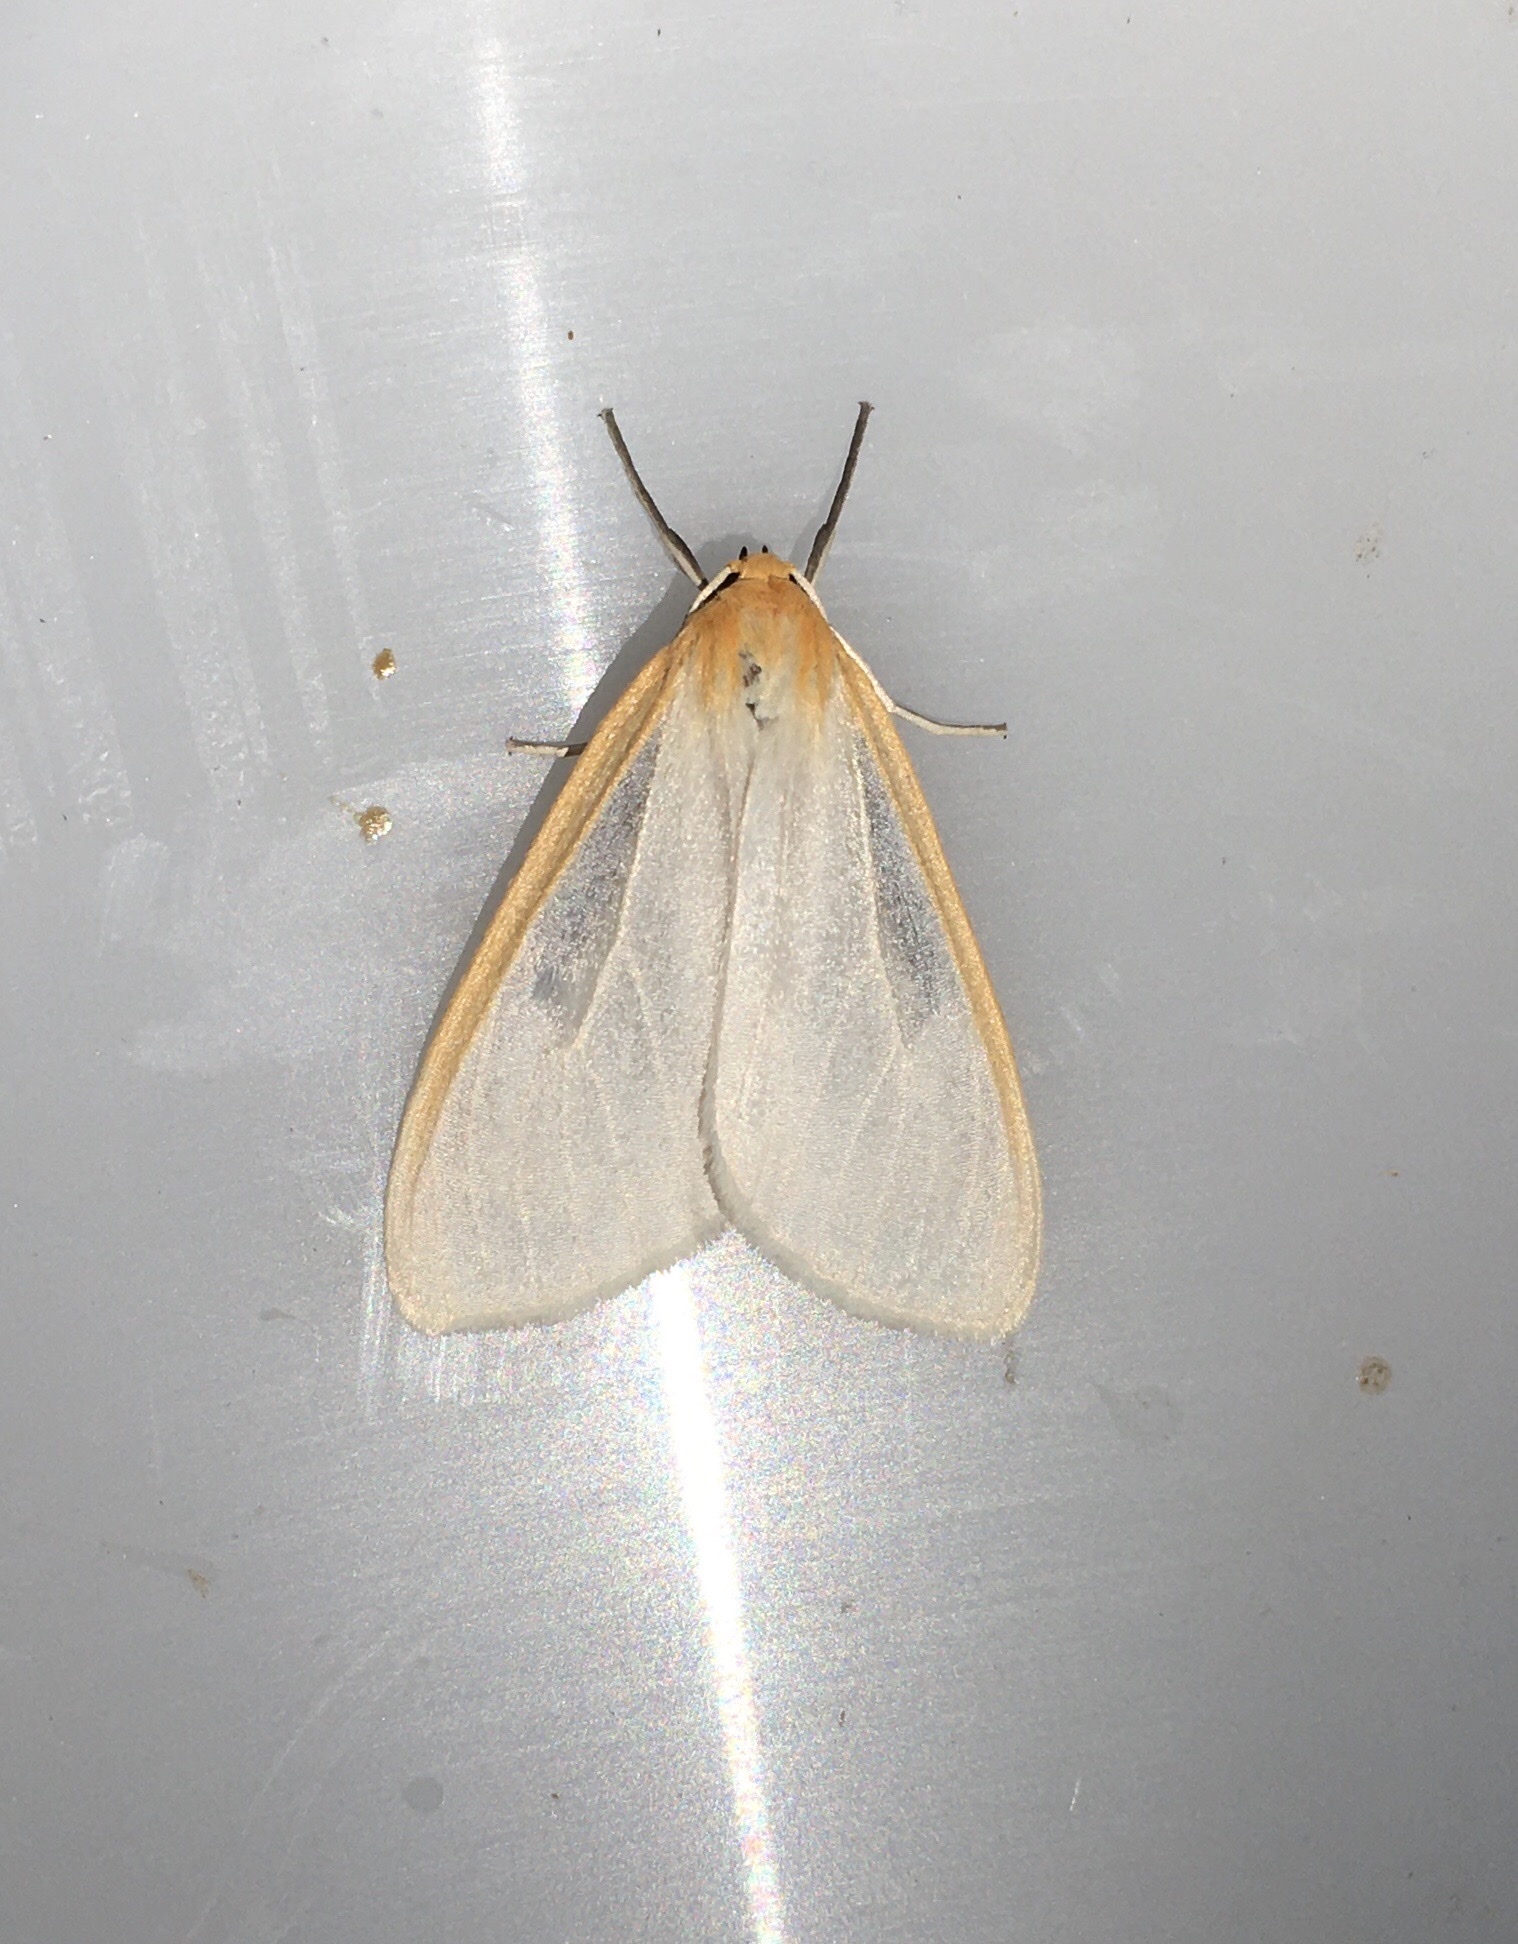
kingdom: Animalia
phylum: Arthropoda
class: Insecta
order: Lepidoptera
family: Erebidae
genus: Cycnia
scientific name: Cycnia tenera
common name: Delicate cycnia moth
